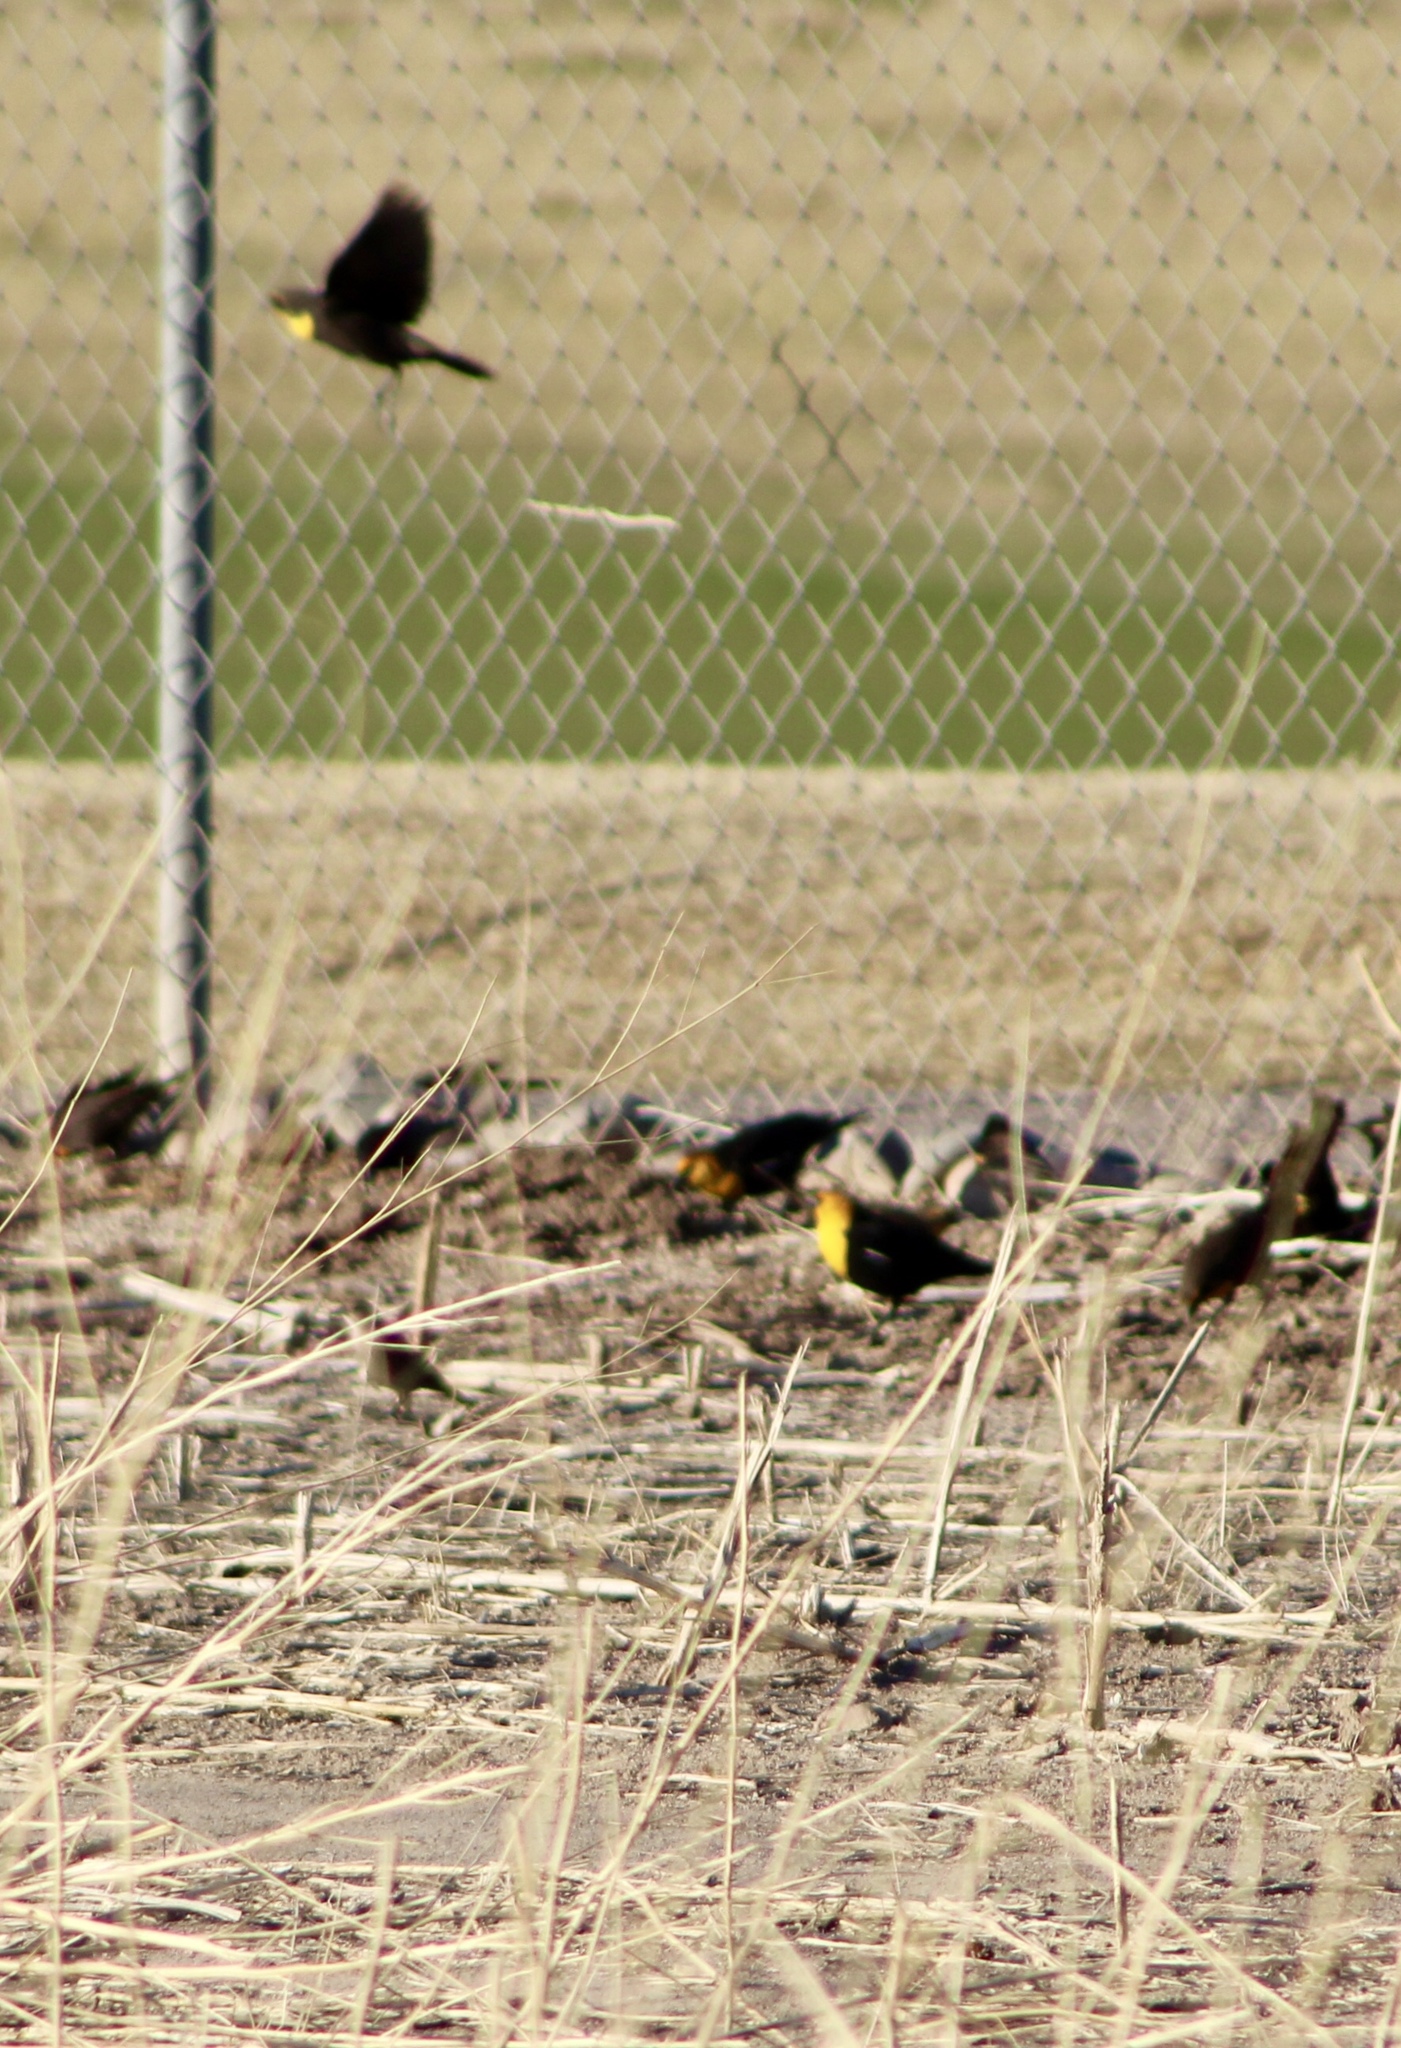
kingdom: Animalia
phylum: Chordata
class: Aves
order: Passeriformes
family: Icteridae
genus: Xanthocephalus
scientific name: Xanthocephalus xanthocephalus
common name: Yellow-headed blackbird
